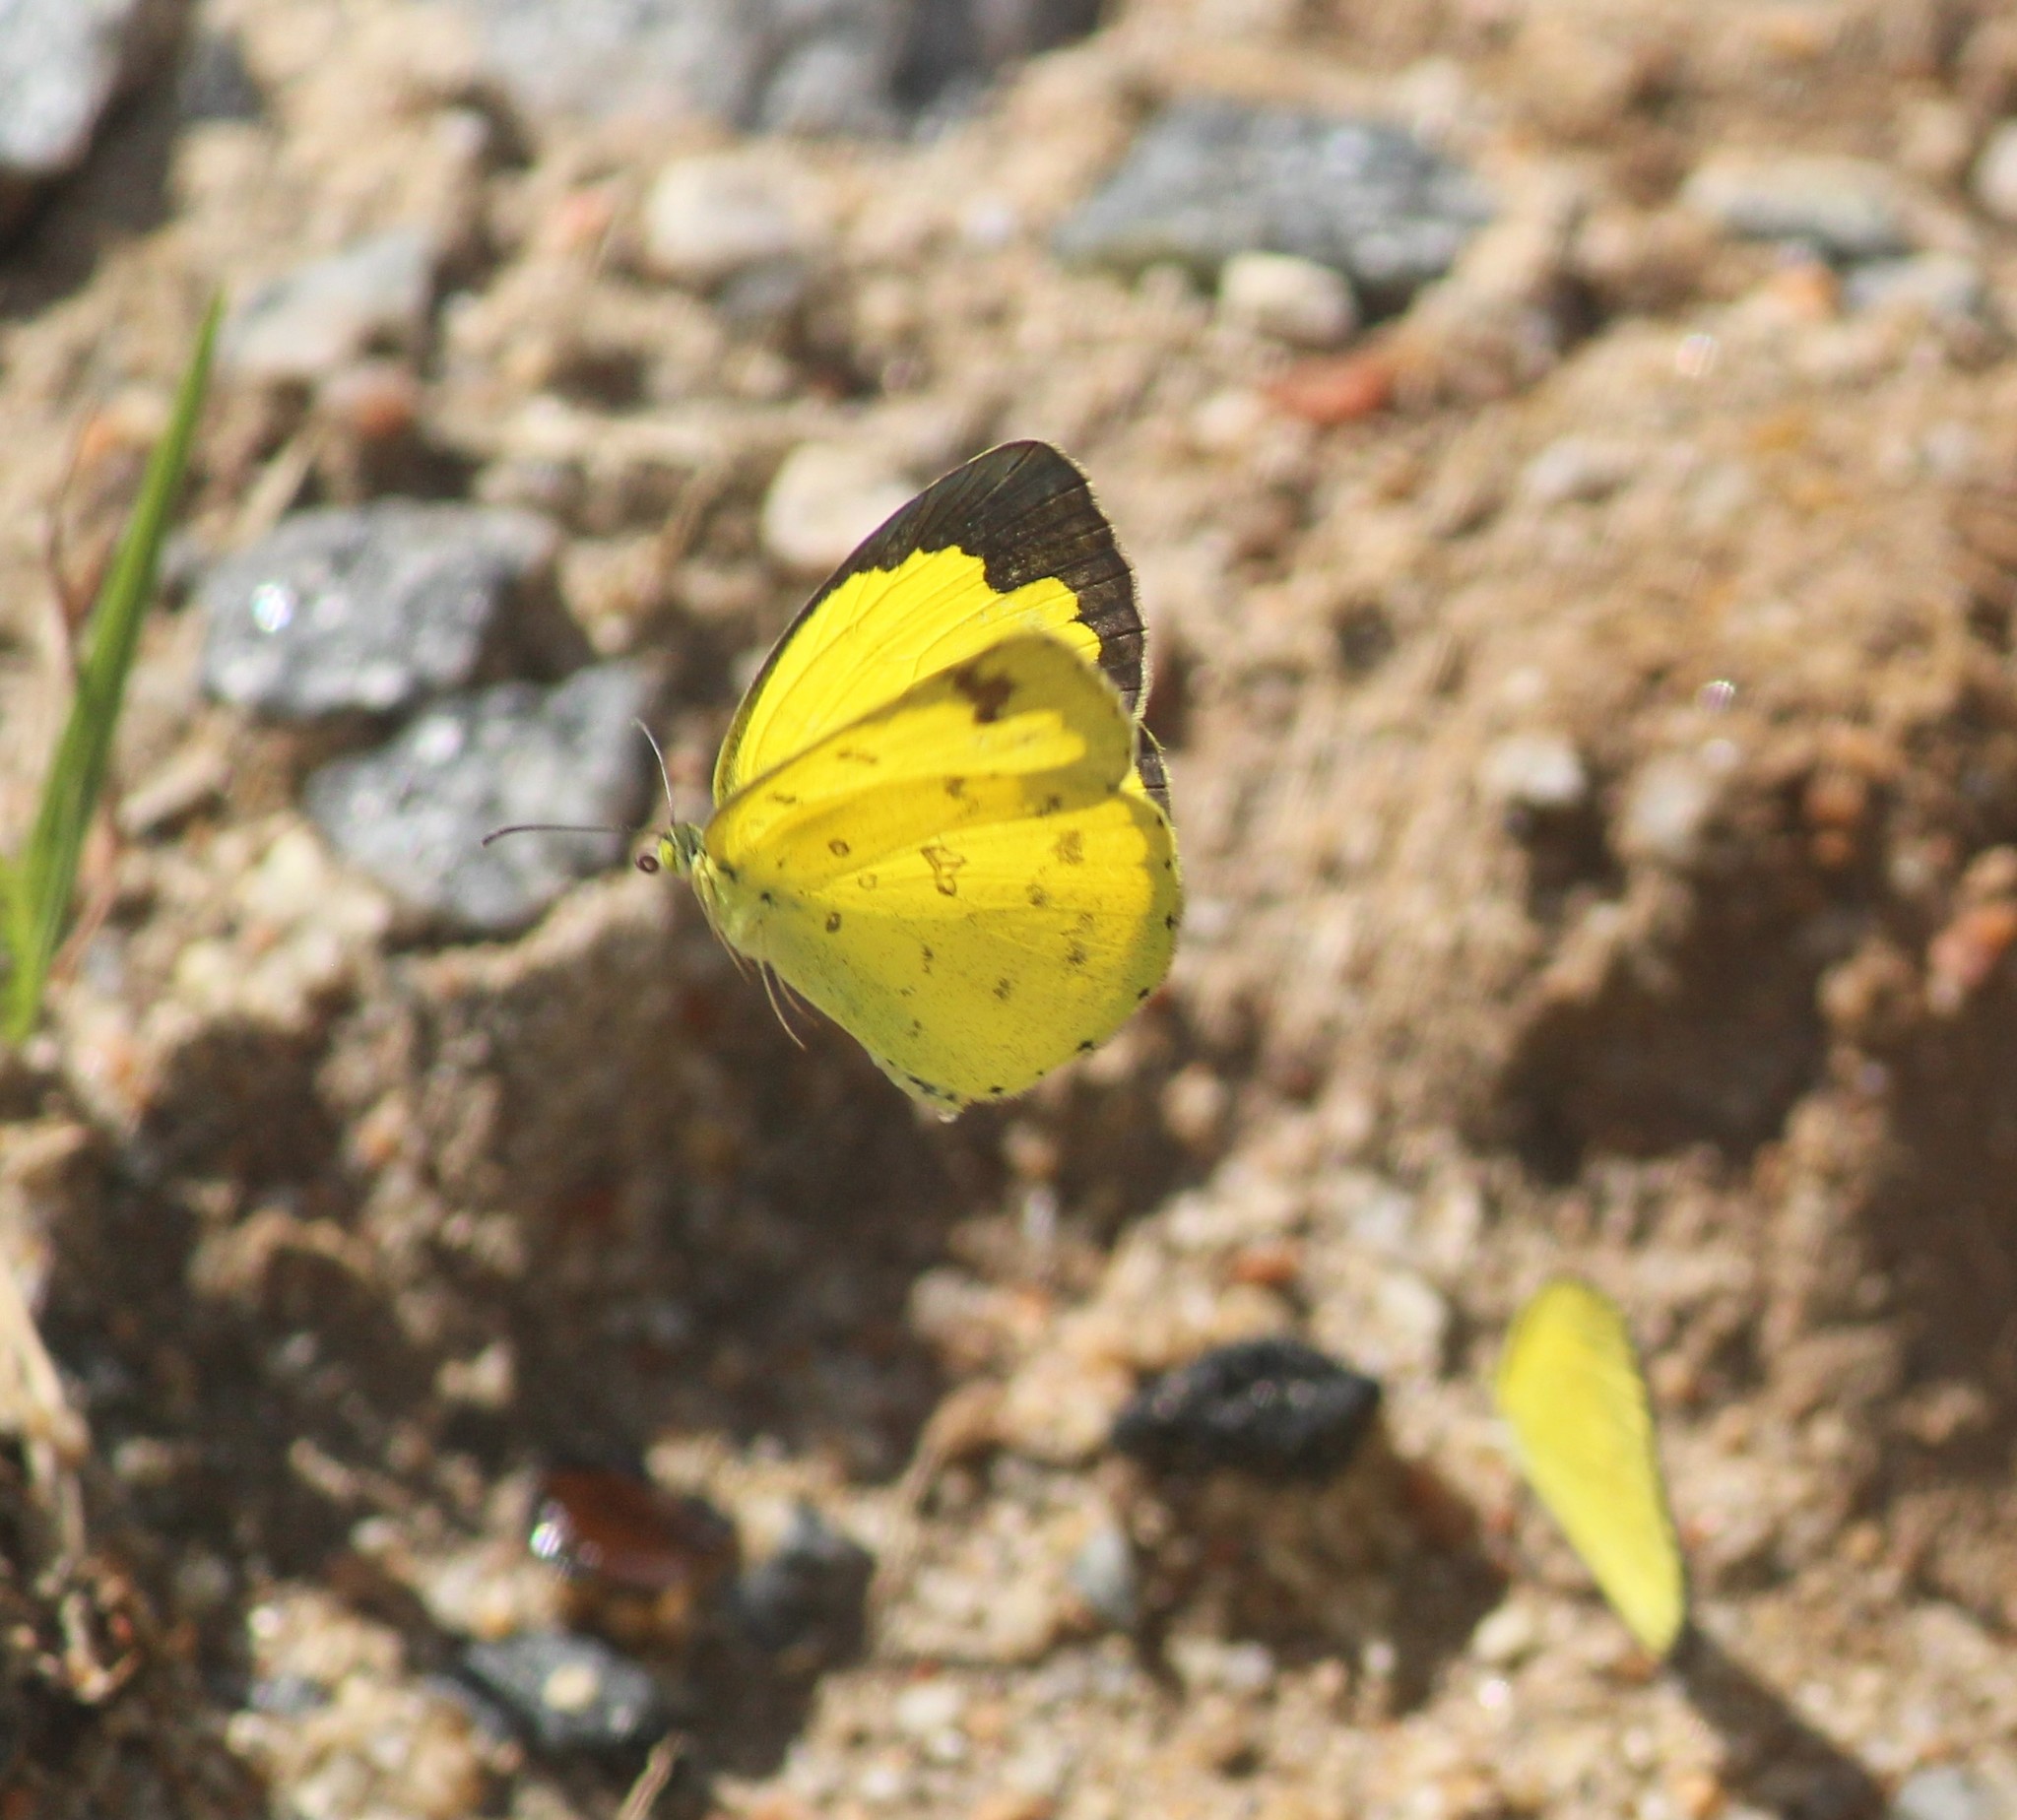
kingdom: Animalia
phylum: Arthropoda
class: Insecta
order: Lepidoptera
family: Pieridae
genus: Eurema
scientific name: Eurema hecabe
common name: Pale grass yellow
